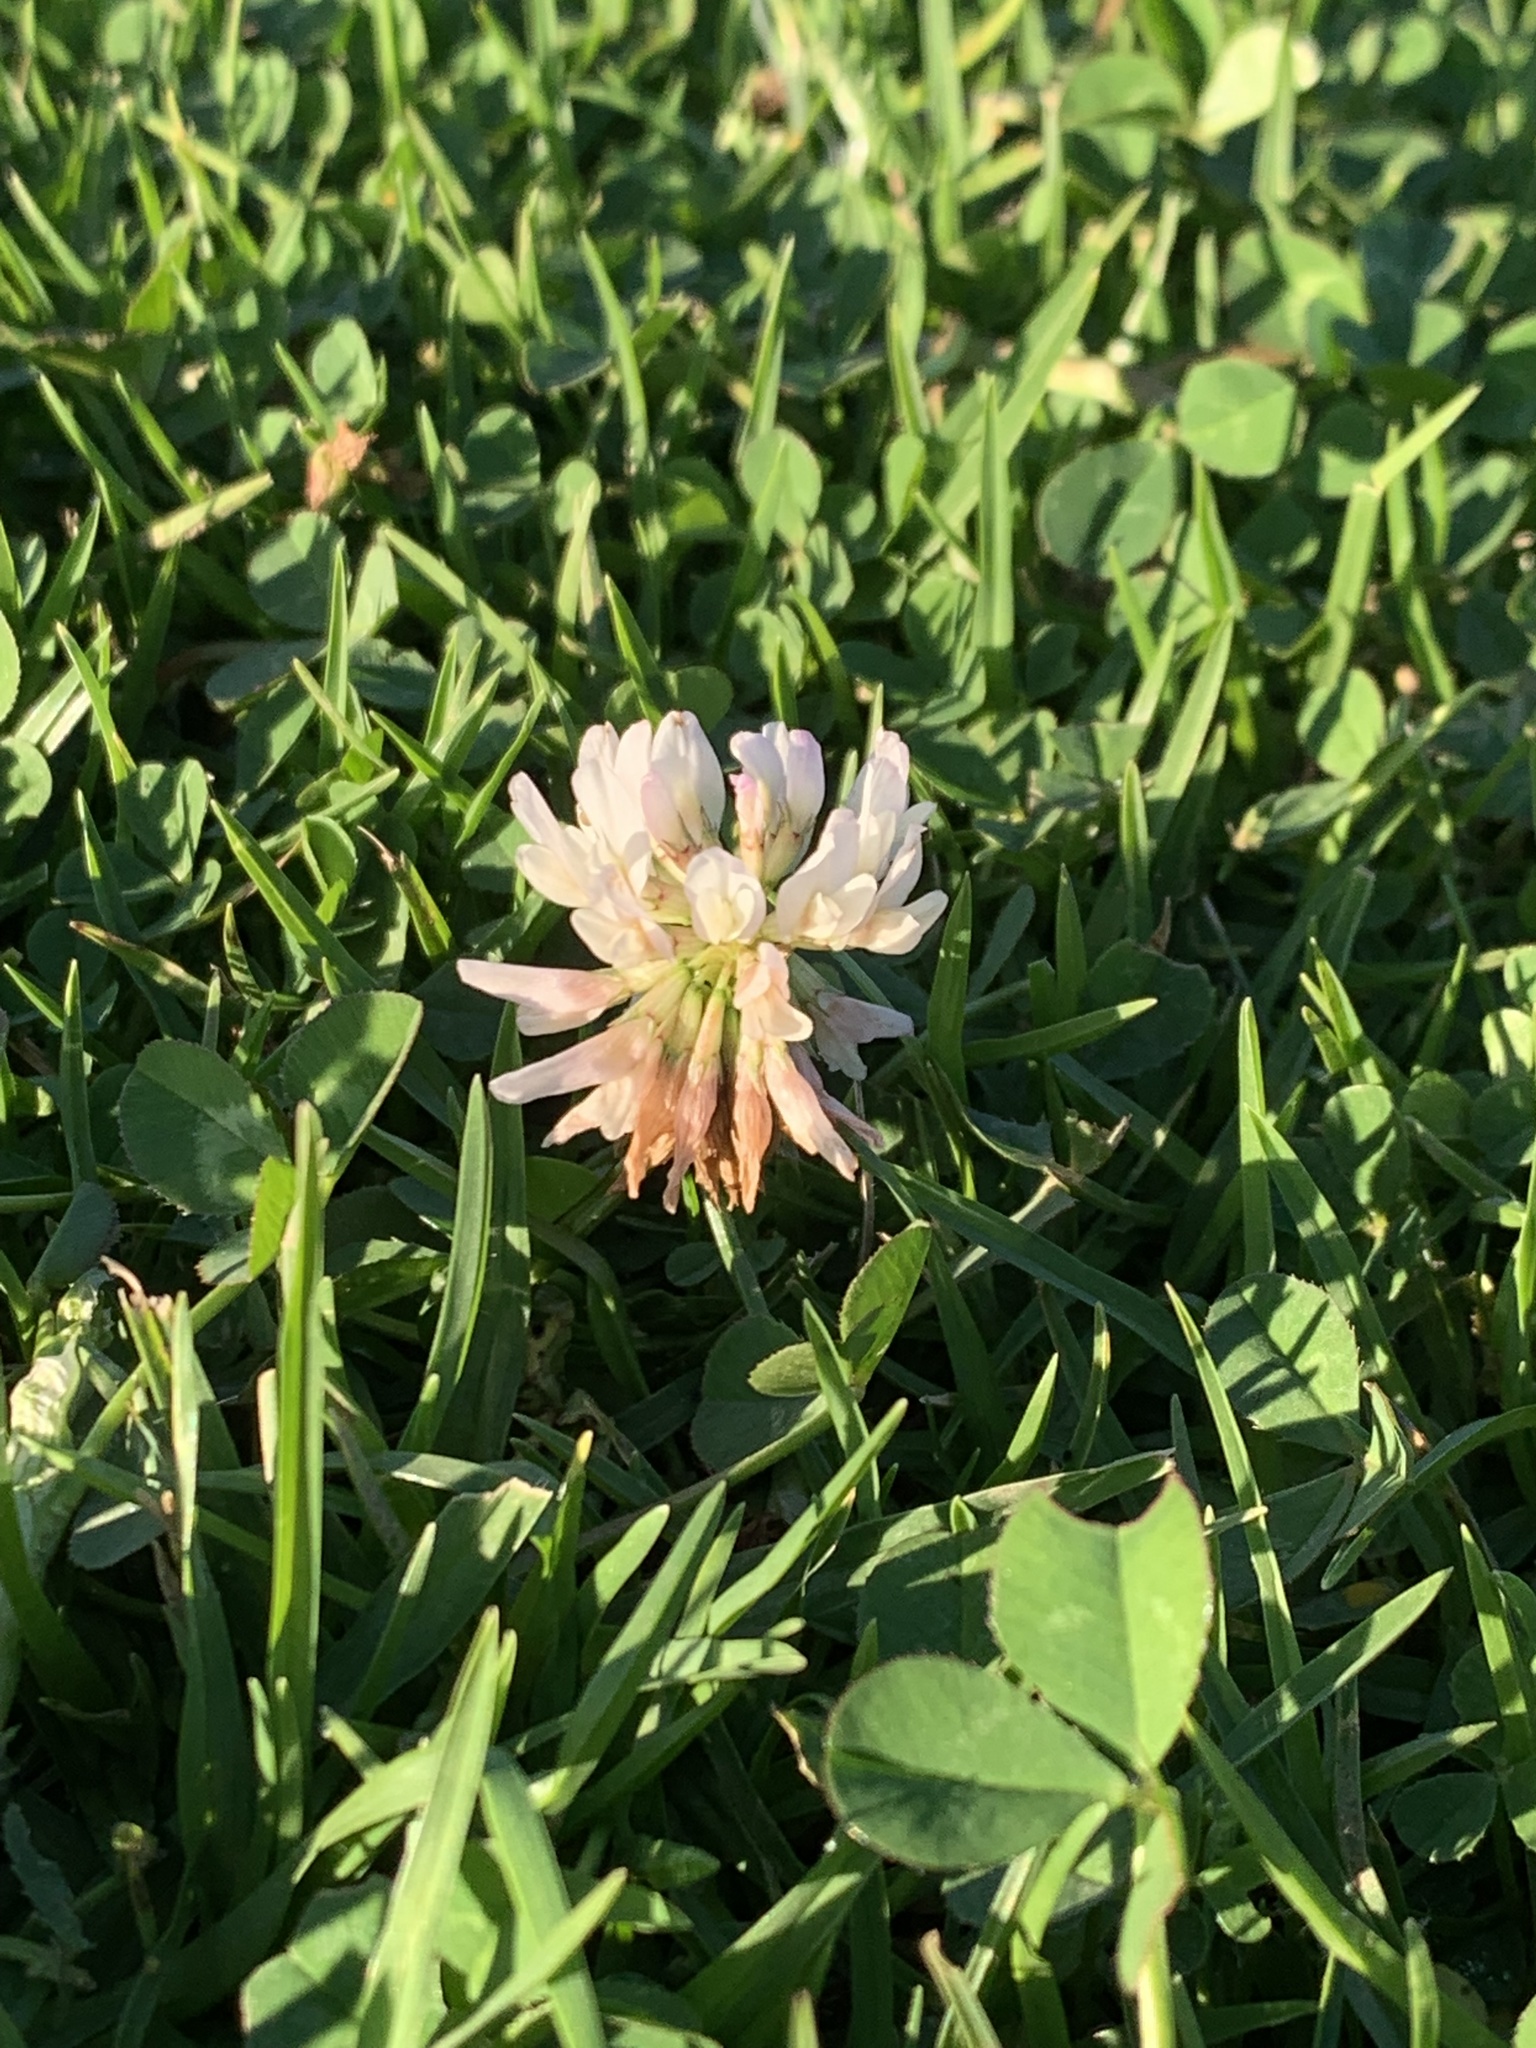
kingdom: Plantae
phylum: Tracheophyta
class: Magnoliopsida
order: Fabales
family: Fabaceae
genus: Trifolium
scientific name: Trifolium repens
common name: White clover
